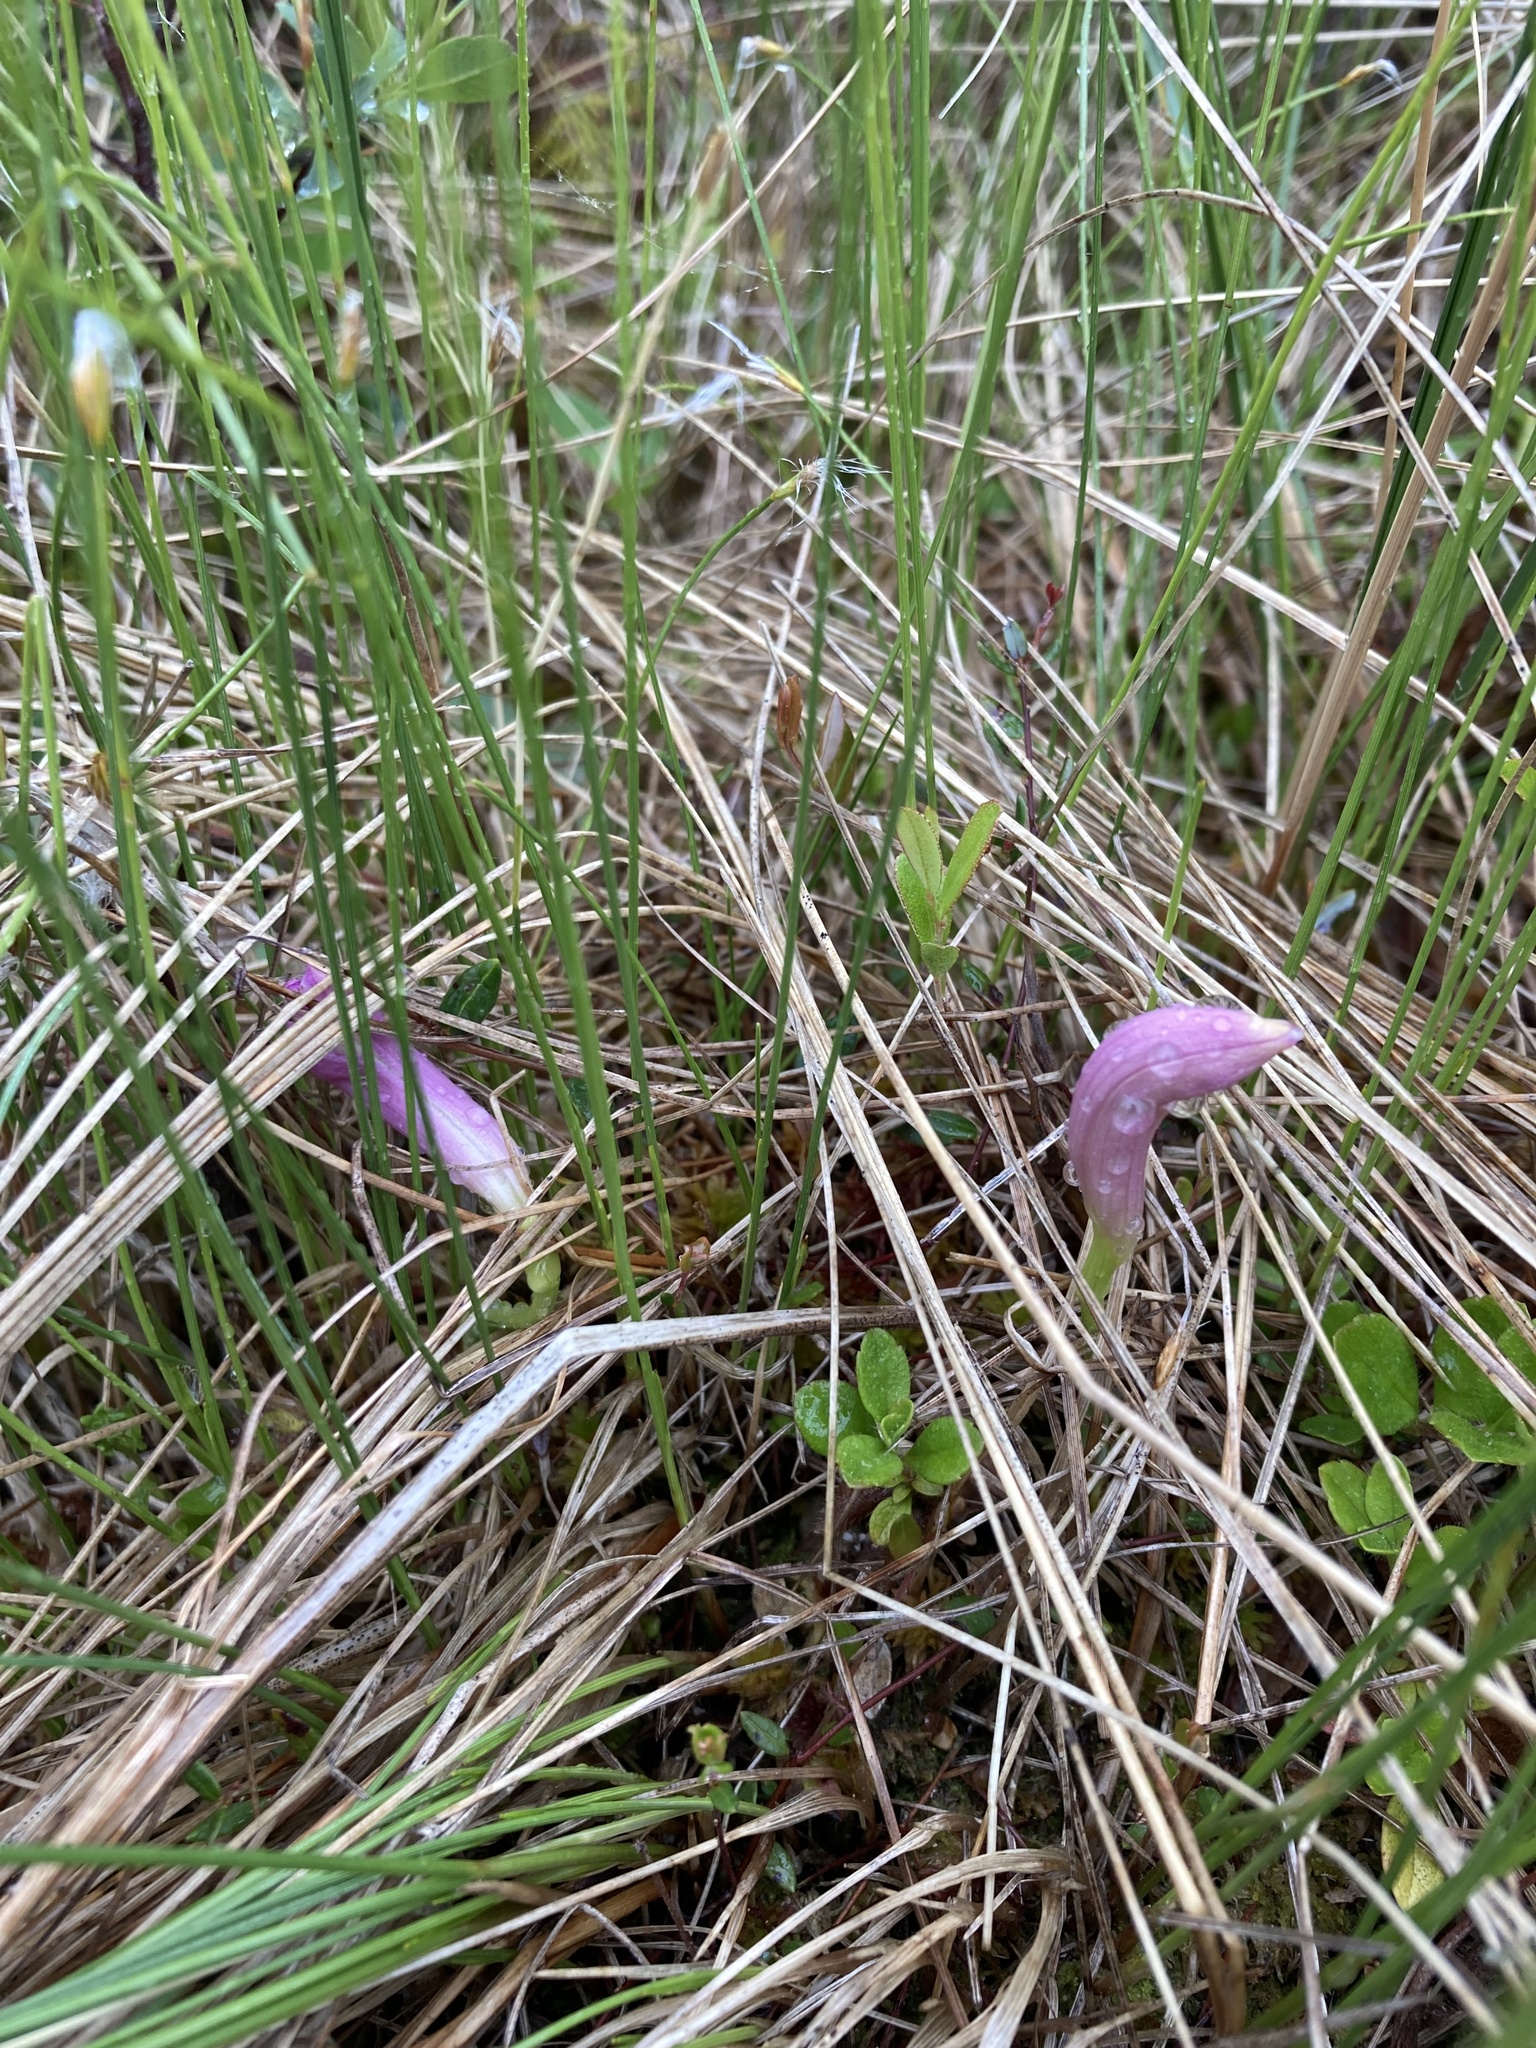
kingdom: Plantae
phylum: Tracheophyta
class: Liliopsida
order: Asparagales
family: Orchidaceae
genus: Arethusa
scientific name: Arethusa bulbosa
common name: Arethusa
